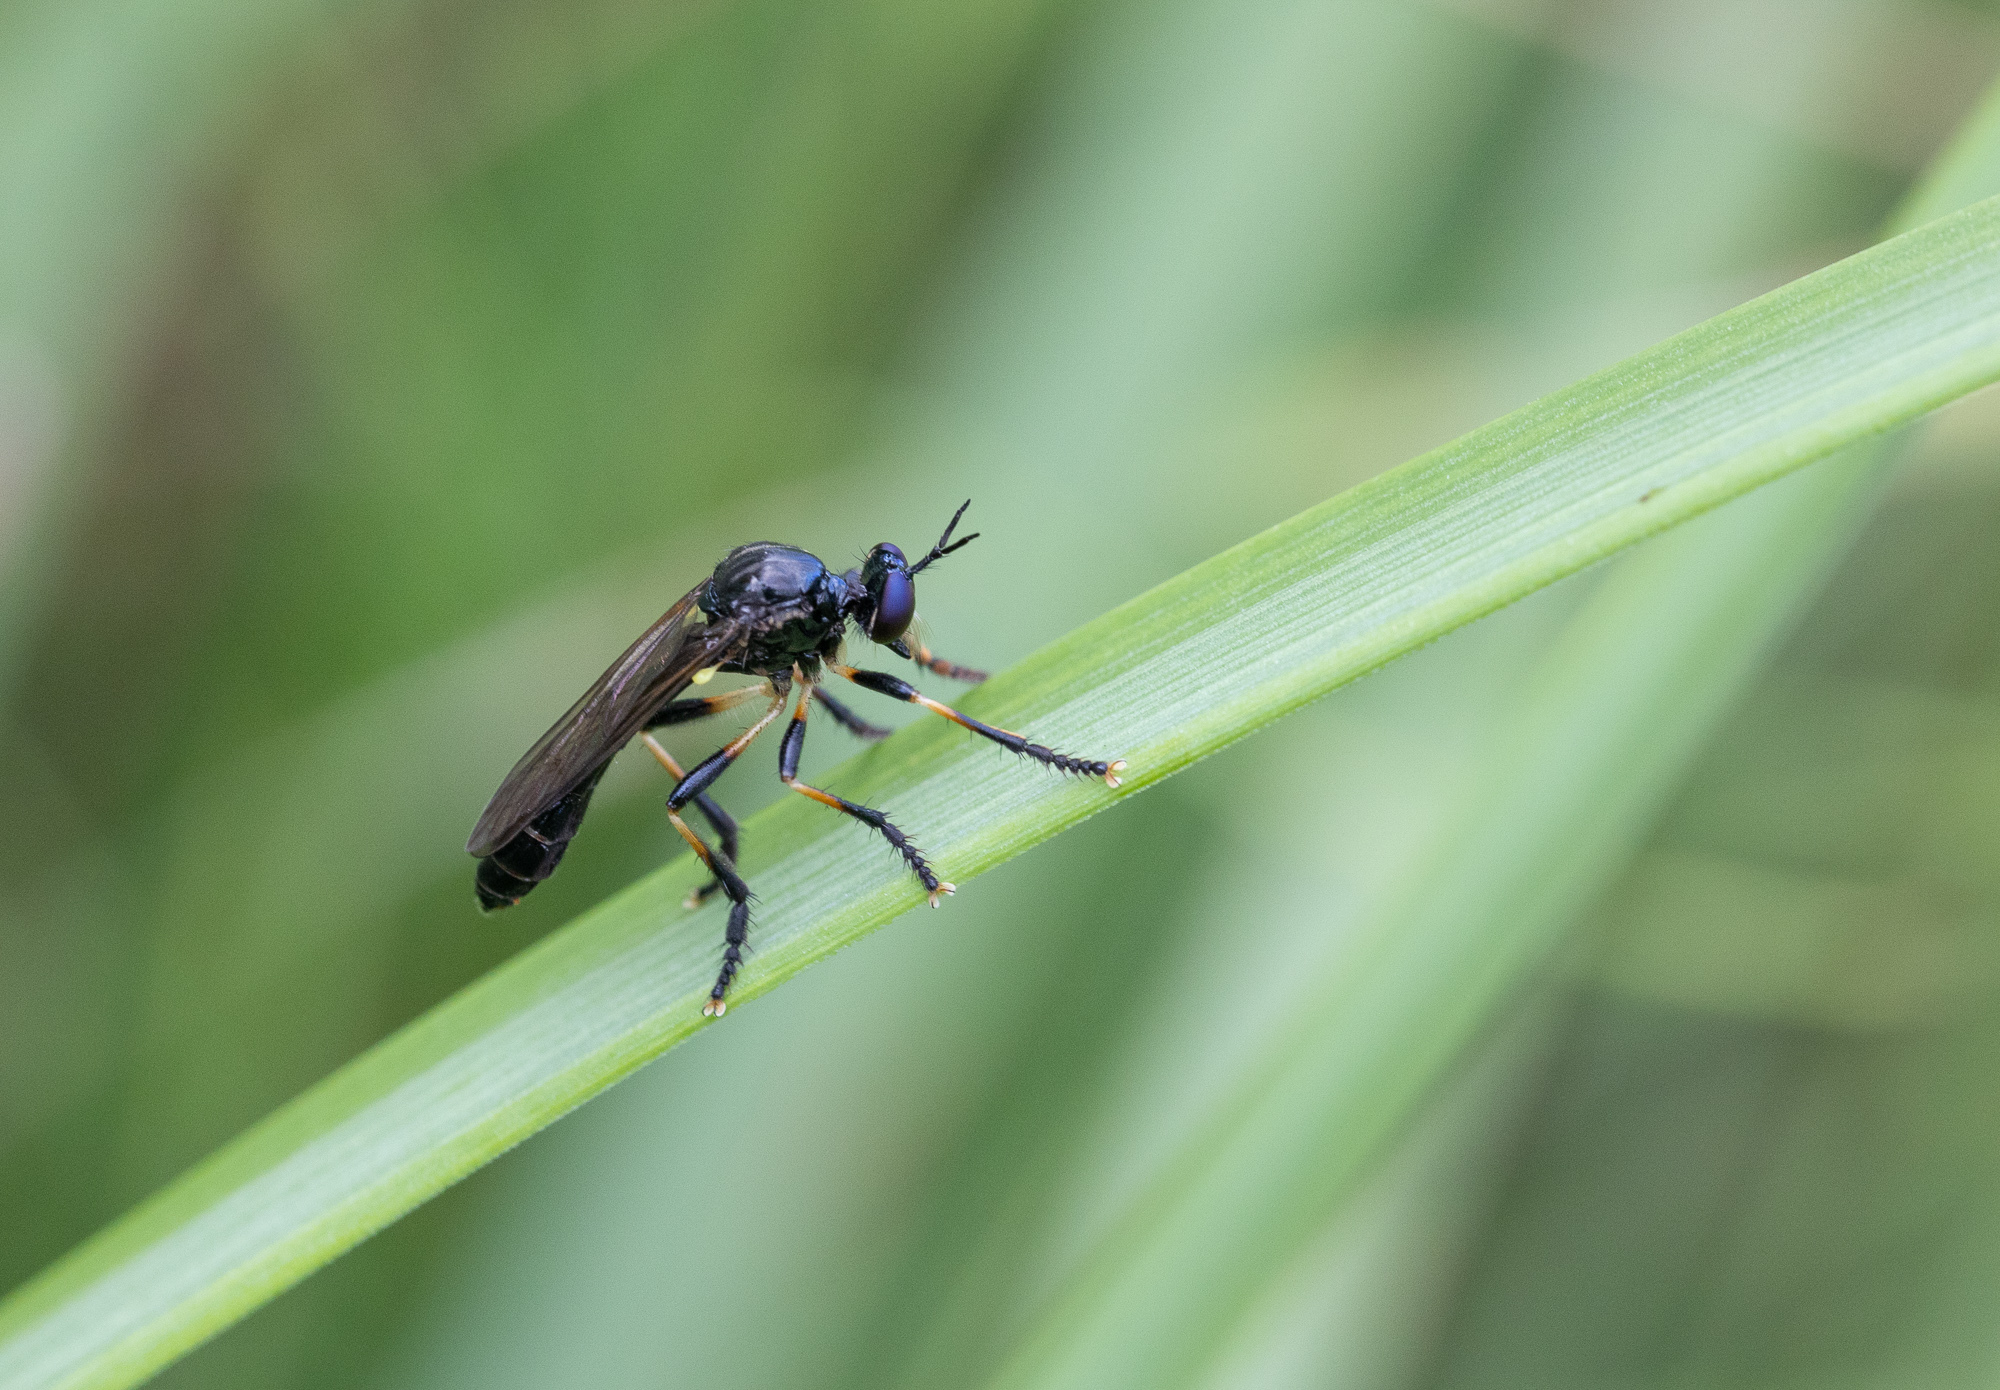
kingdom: Animalia
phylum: Arthropoda
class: Insecta
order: Diptera
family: Asilidae
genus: Dioctria
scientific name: Dioctria cothurnata
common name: Scarce red-legged robberfly
